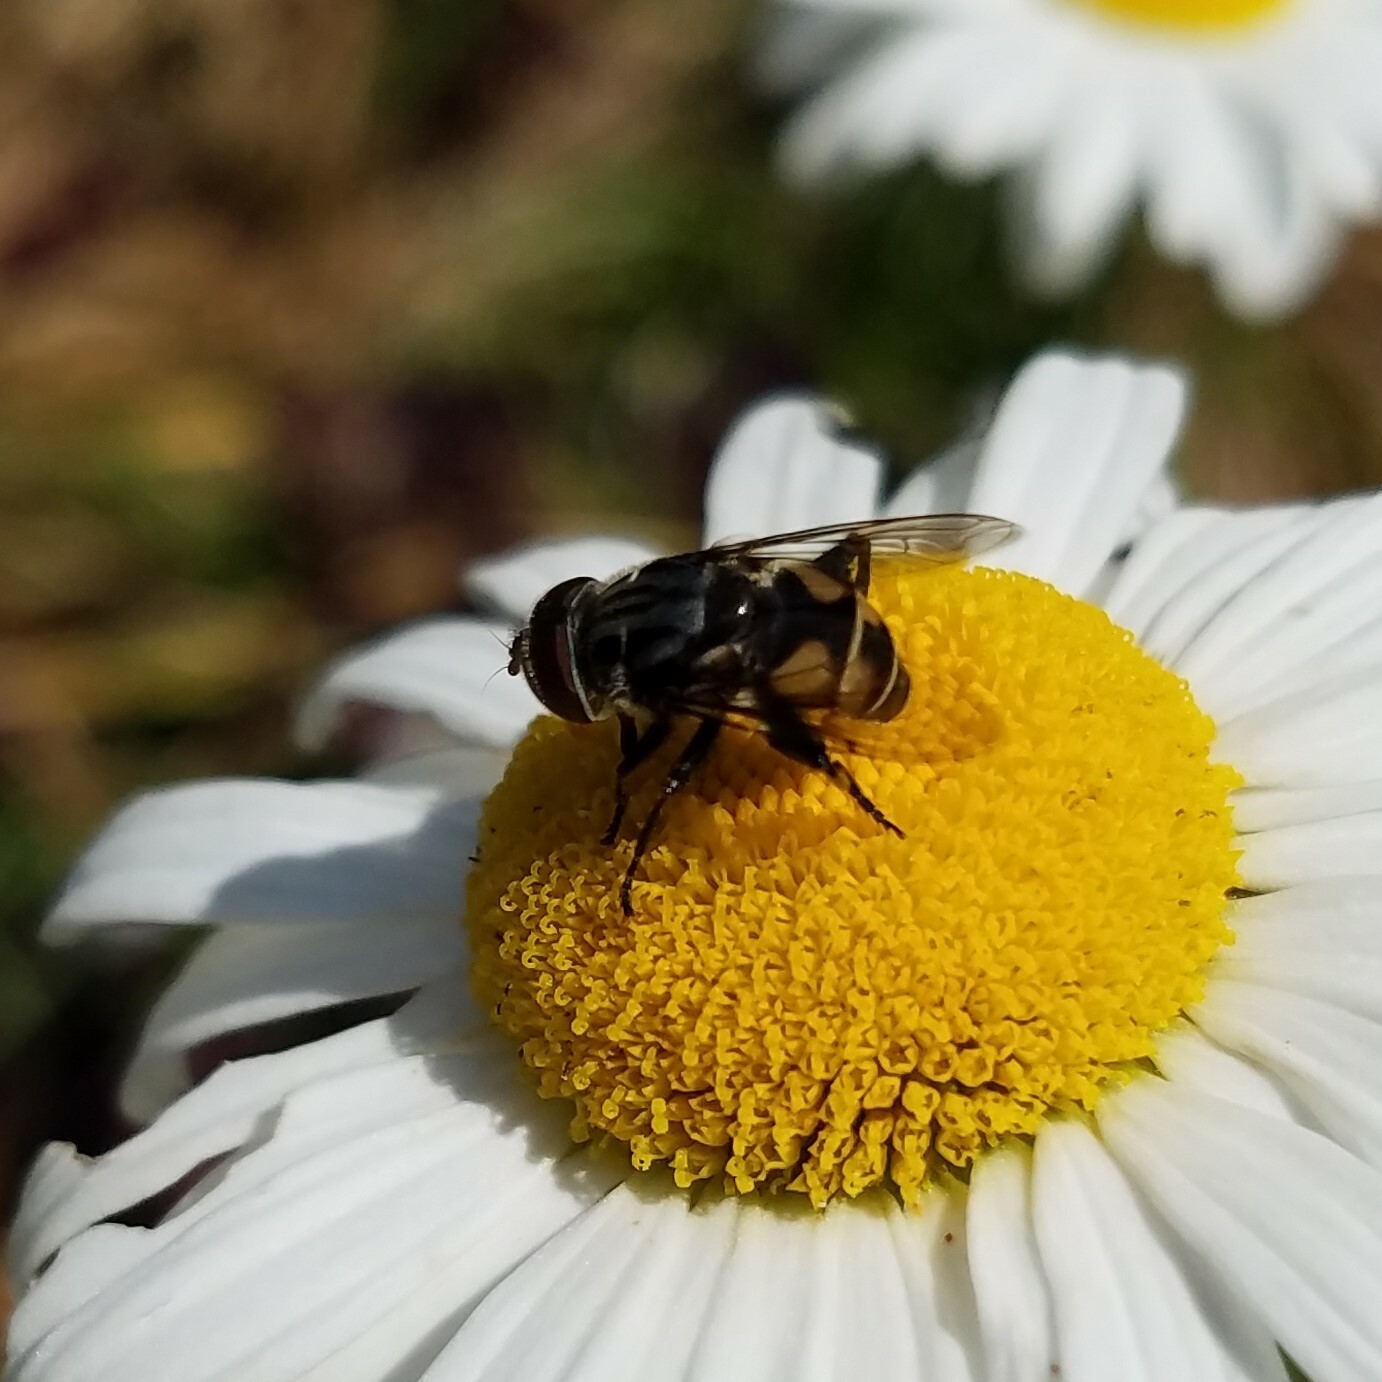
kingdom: Animalia
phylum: Arthropoda
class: Insecta
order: Diptera
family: Syrphidae
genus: Palpada
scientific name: Palpada furcata
